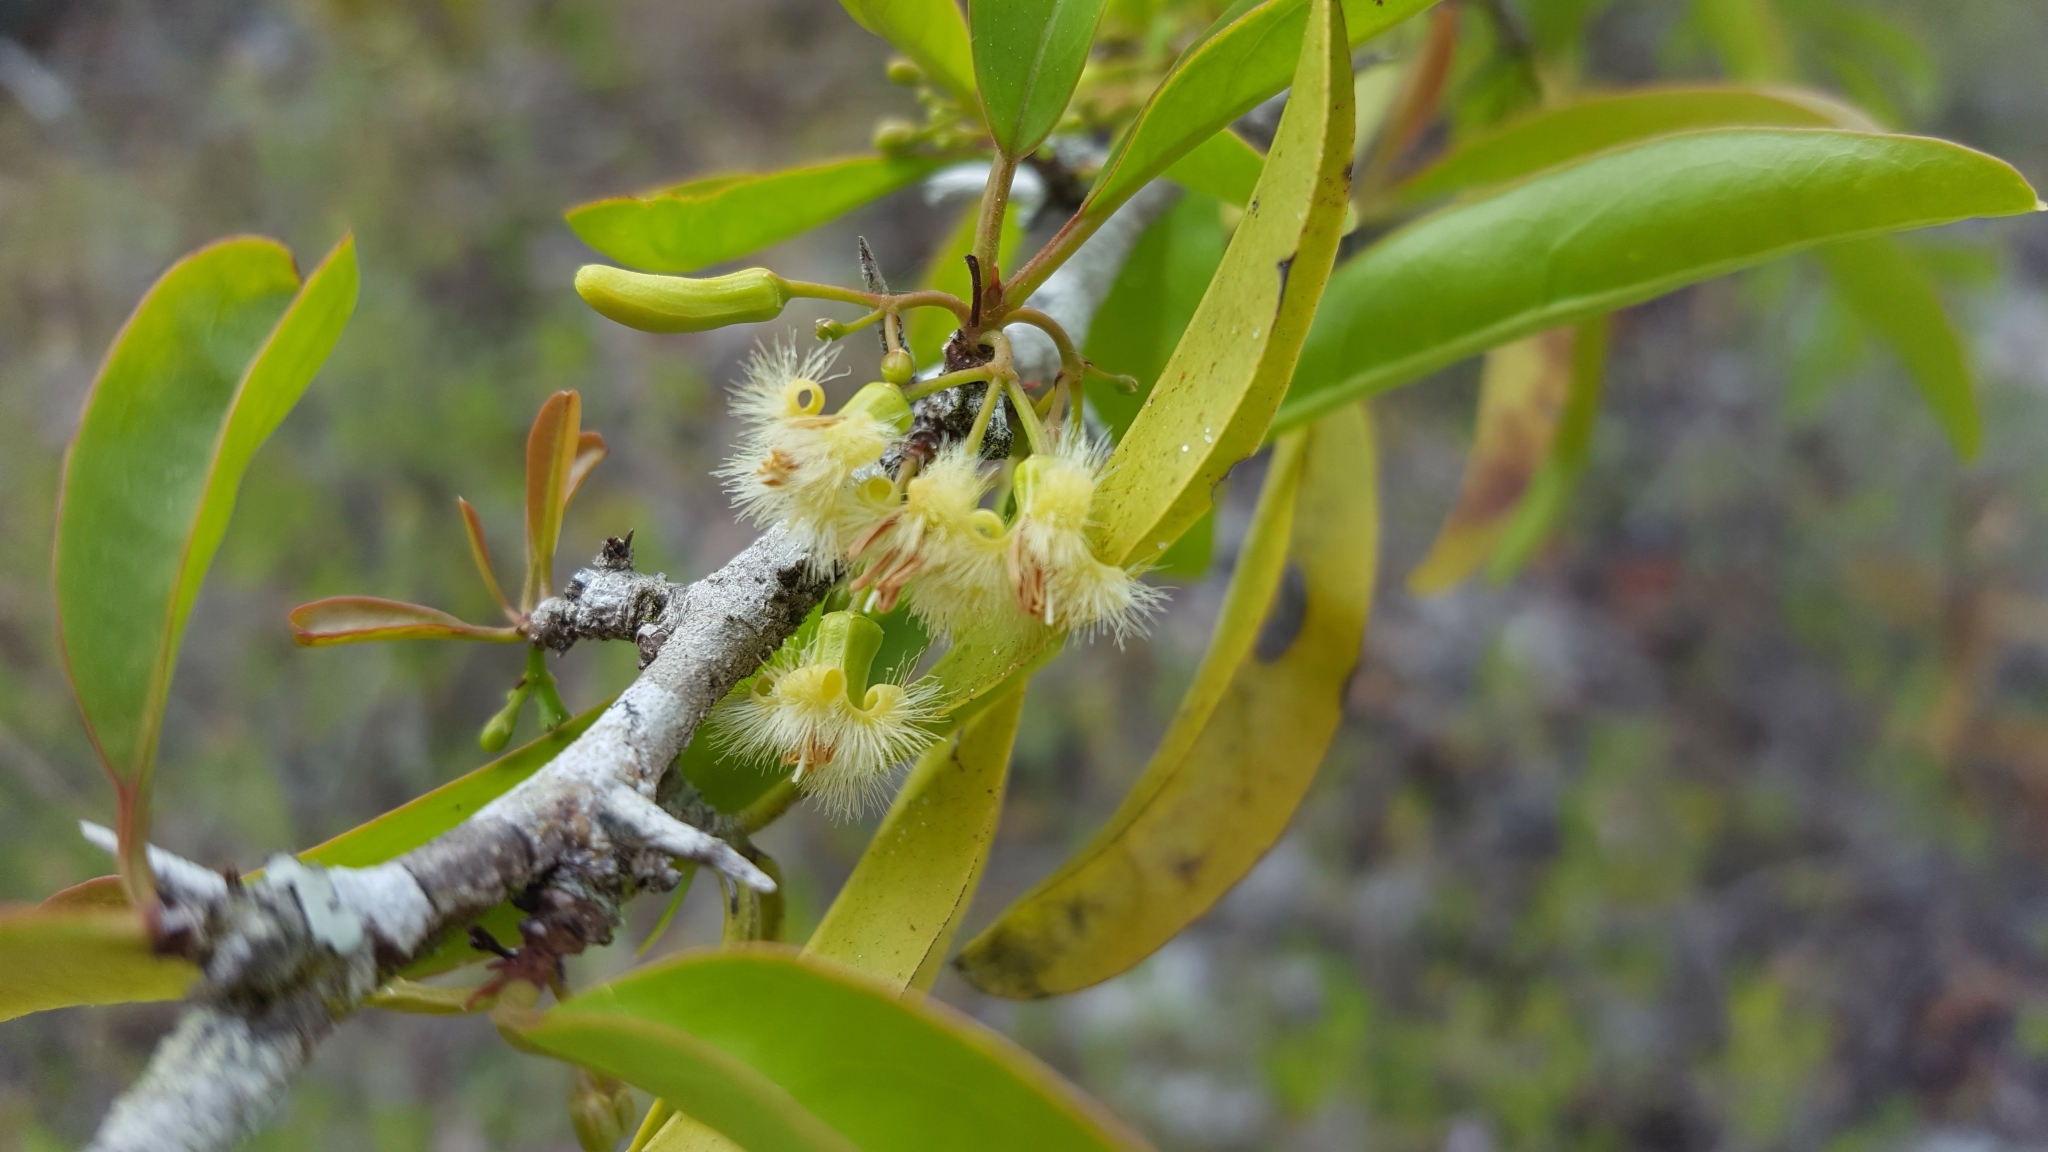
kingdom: Plantae
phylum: Tracheophyta
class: Magnoliopsida
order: Santalales
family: Ximeniaceae
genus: Ximenia
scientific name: Ximenia americana
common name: Tallowwood
